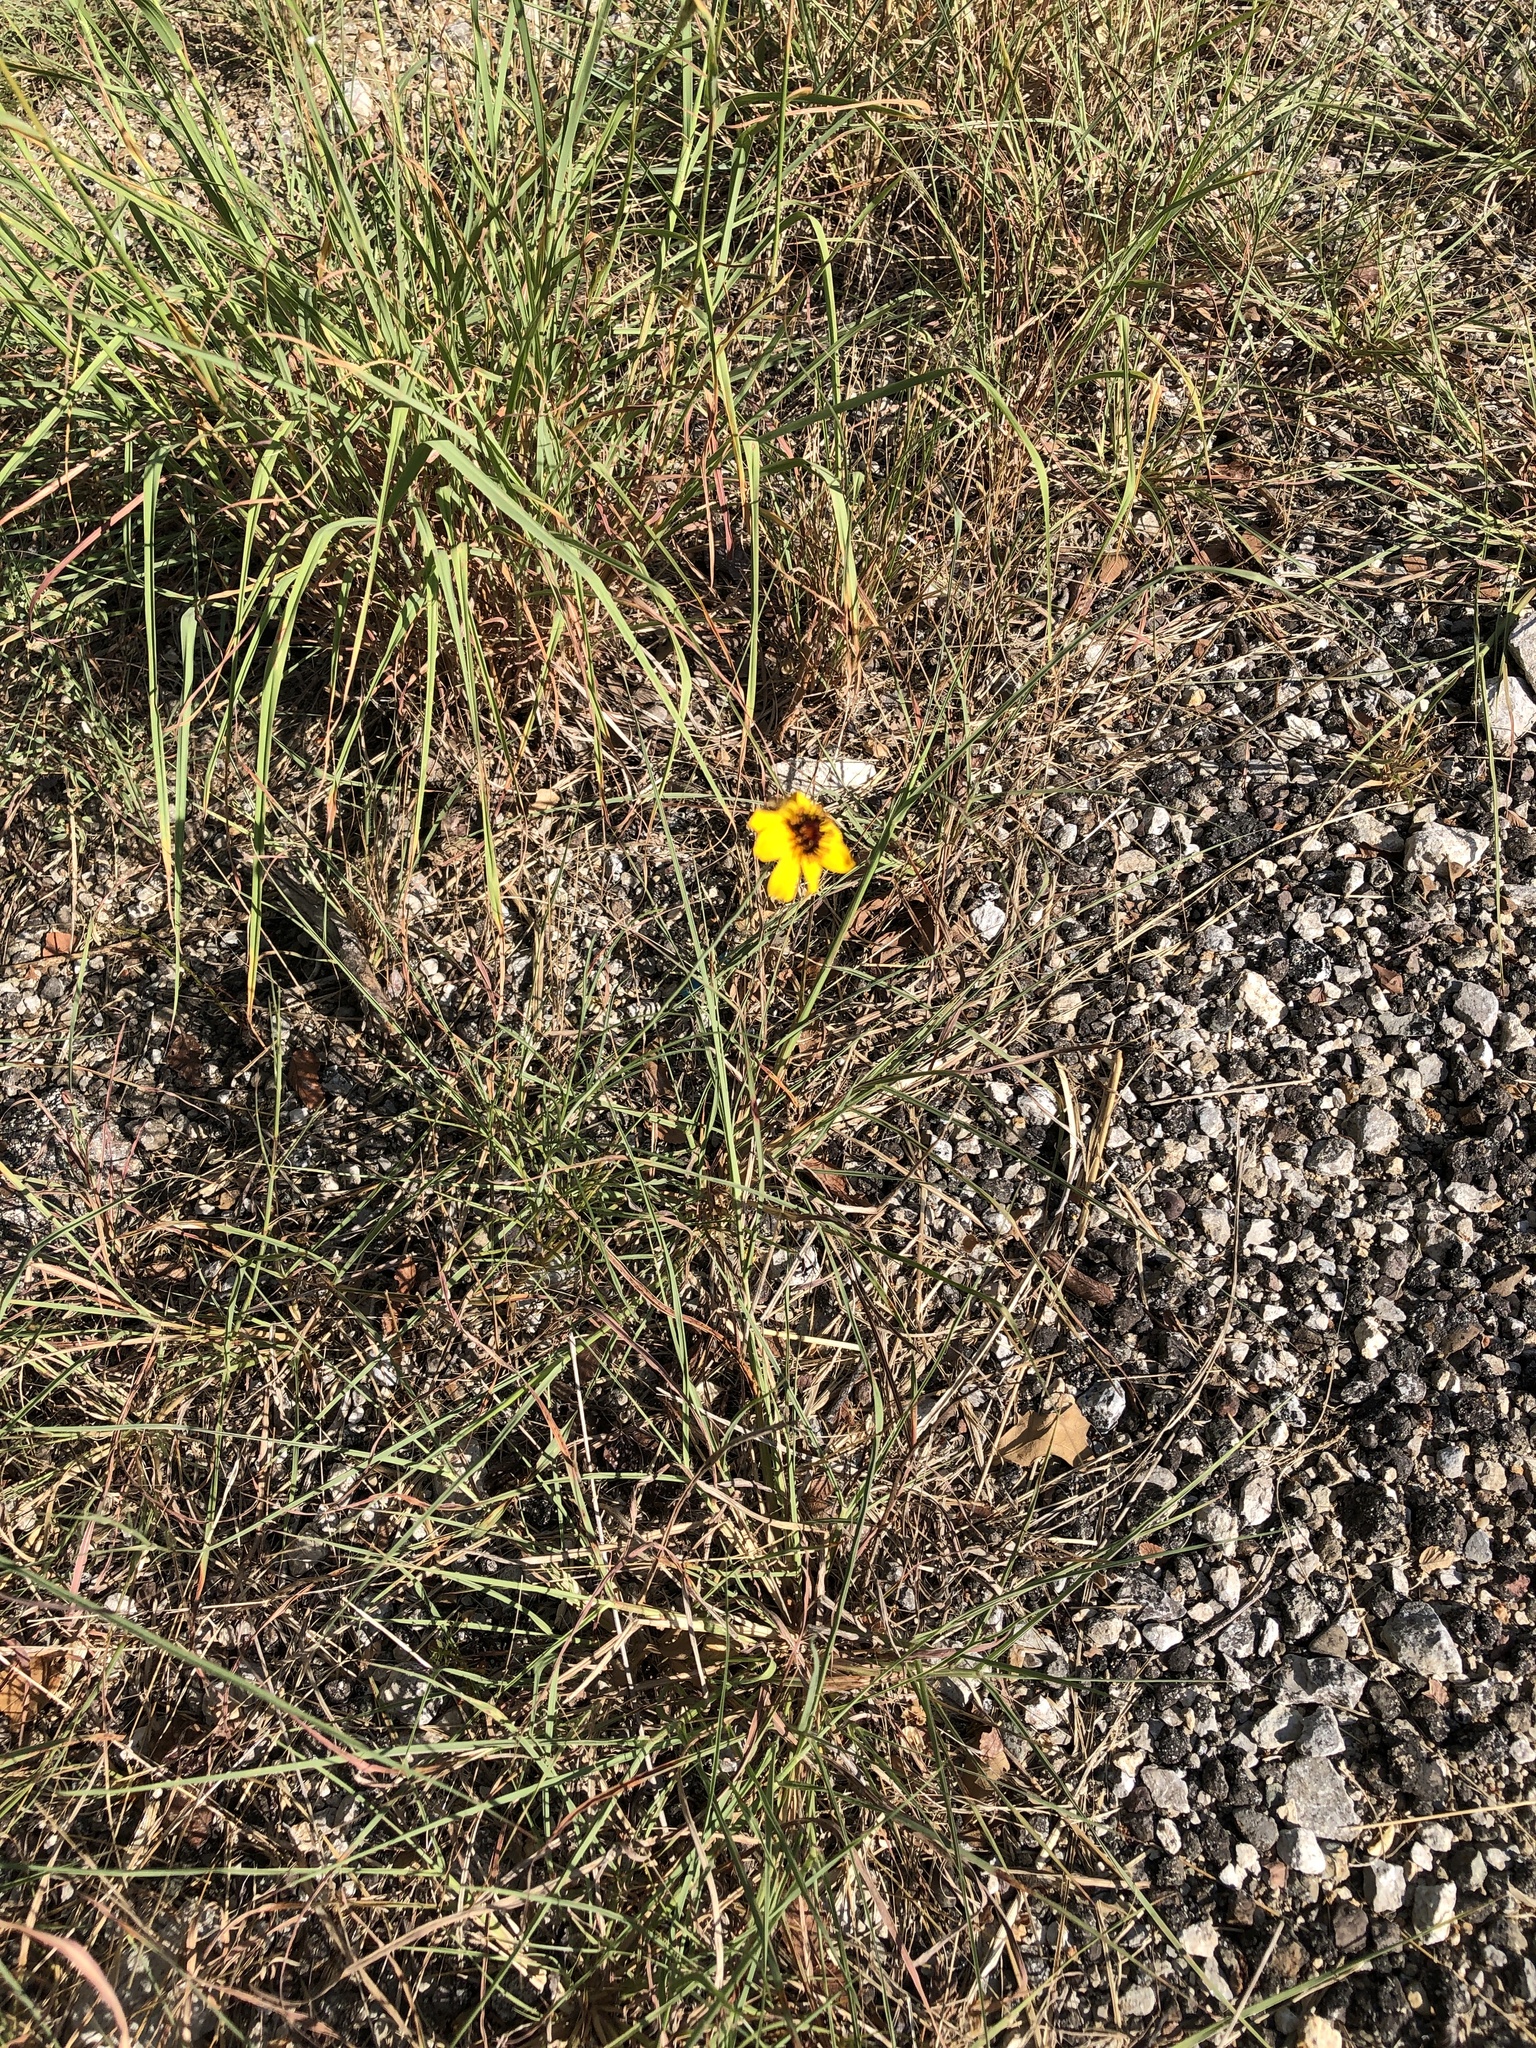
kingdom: Plantae
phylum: Tracheophyta
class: Magnoliopsida
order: Asterales
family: Asteraceae
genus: Thelesperma
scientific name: Thelesperma filifolium
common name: Stiff greenthread
